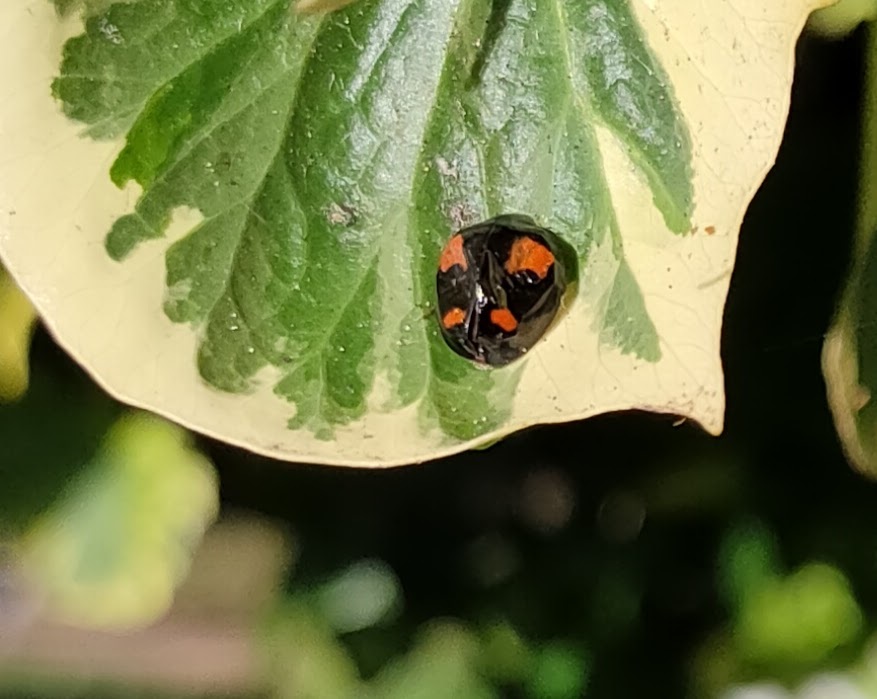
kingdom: Animalia
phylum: Arthropoda
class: Insecta
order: Coleoptera
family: Coccinellidae
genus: Harmonia
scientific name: Harmonia axyridis
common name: Harlequin ladybird
